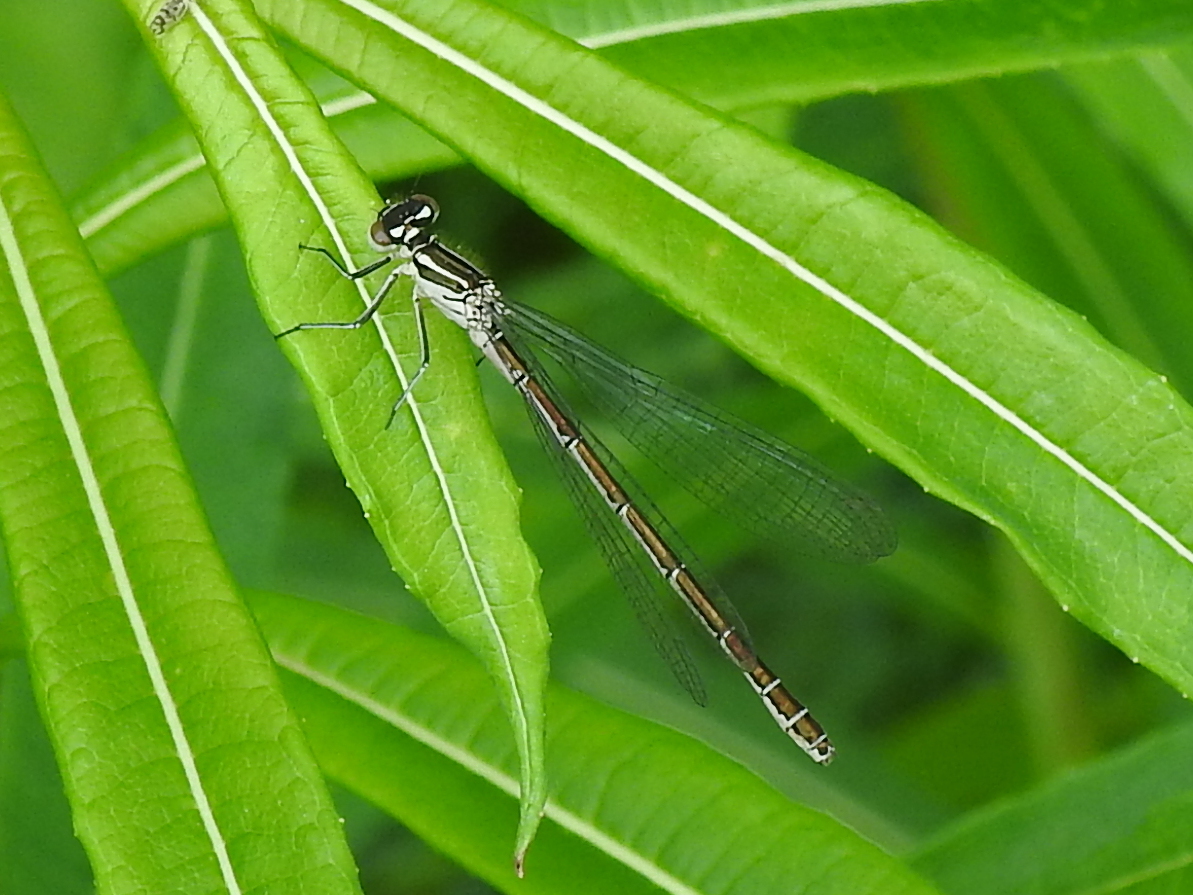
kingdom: Animalia
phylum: Arthropoda
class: Insecta
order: Odonata
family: Coenagrionidae
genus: Coenagrion
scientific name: Coenagrion hastulatum
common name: Spearhead bluet
